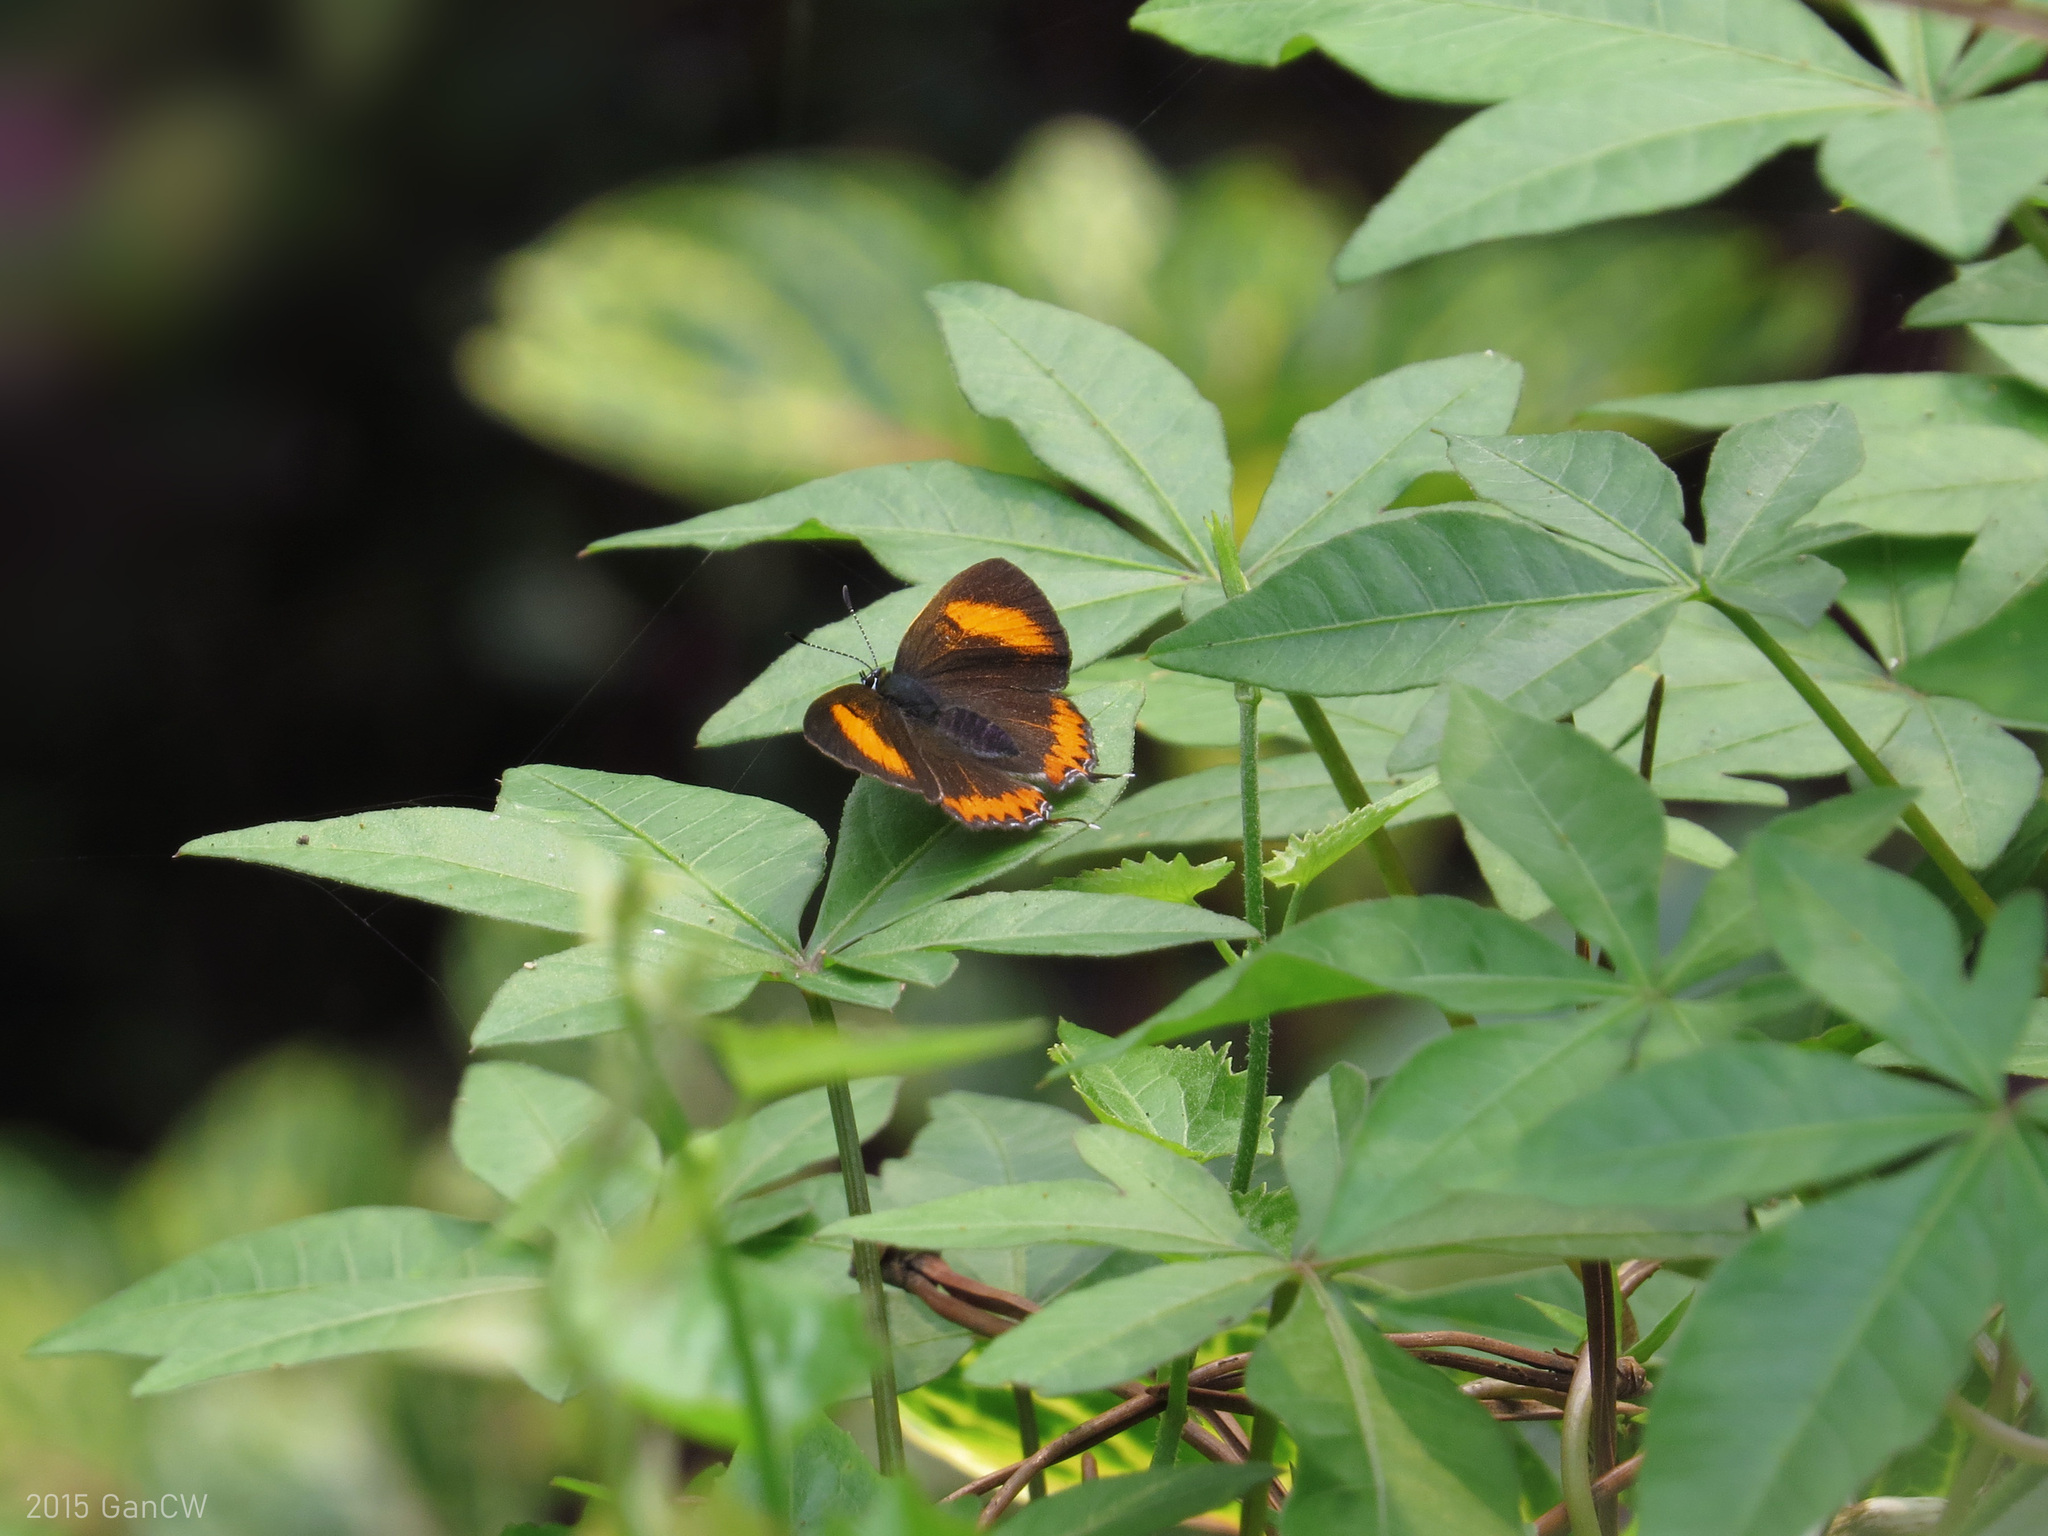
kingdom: Animalia
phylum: Arthropoda
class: Insecta
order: Lepidoptera
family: Lycaenidae
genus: Heliophorus
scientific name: Heliophorus epicles
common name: Purple sapphire
